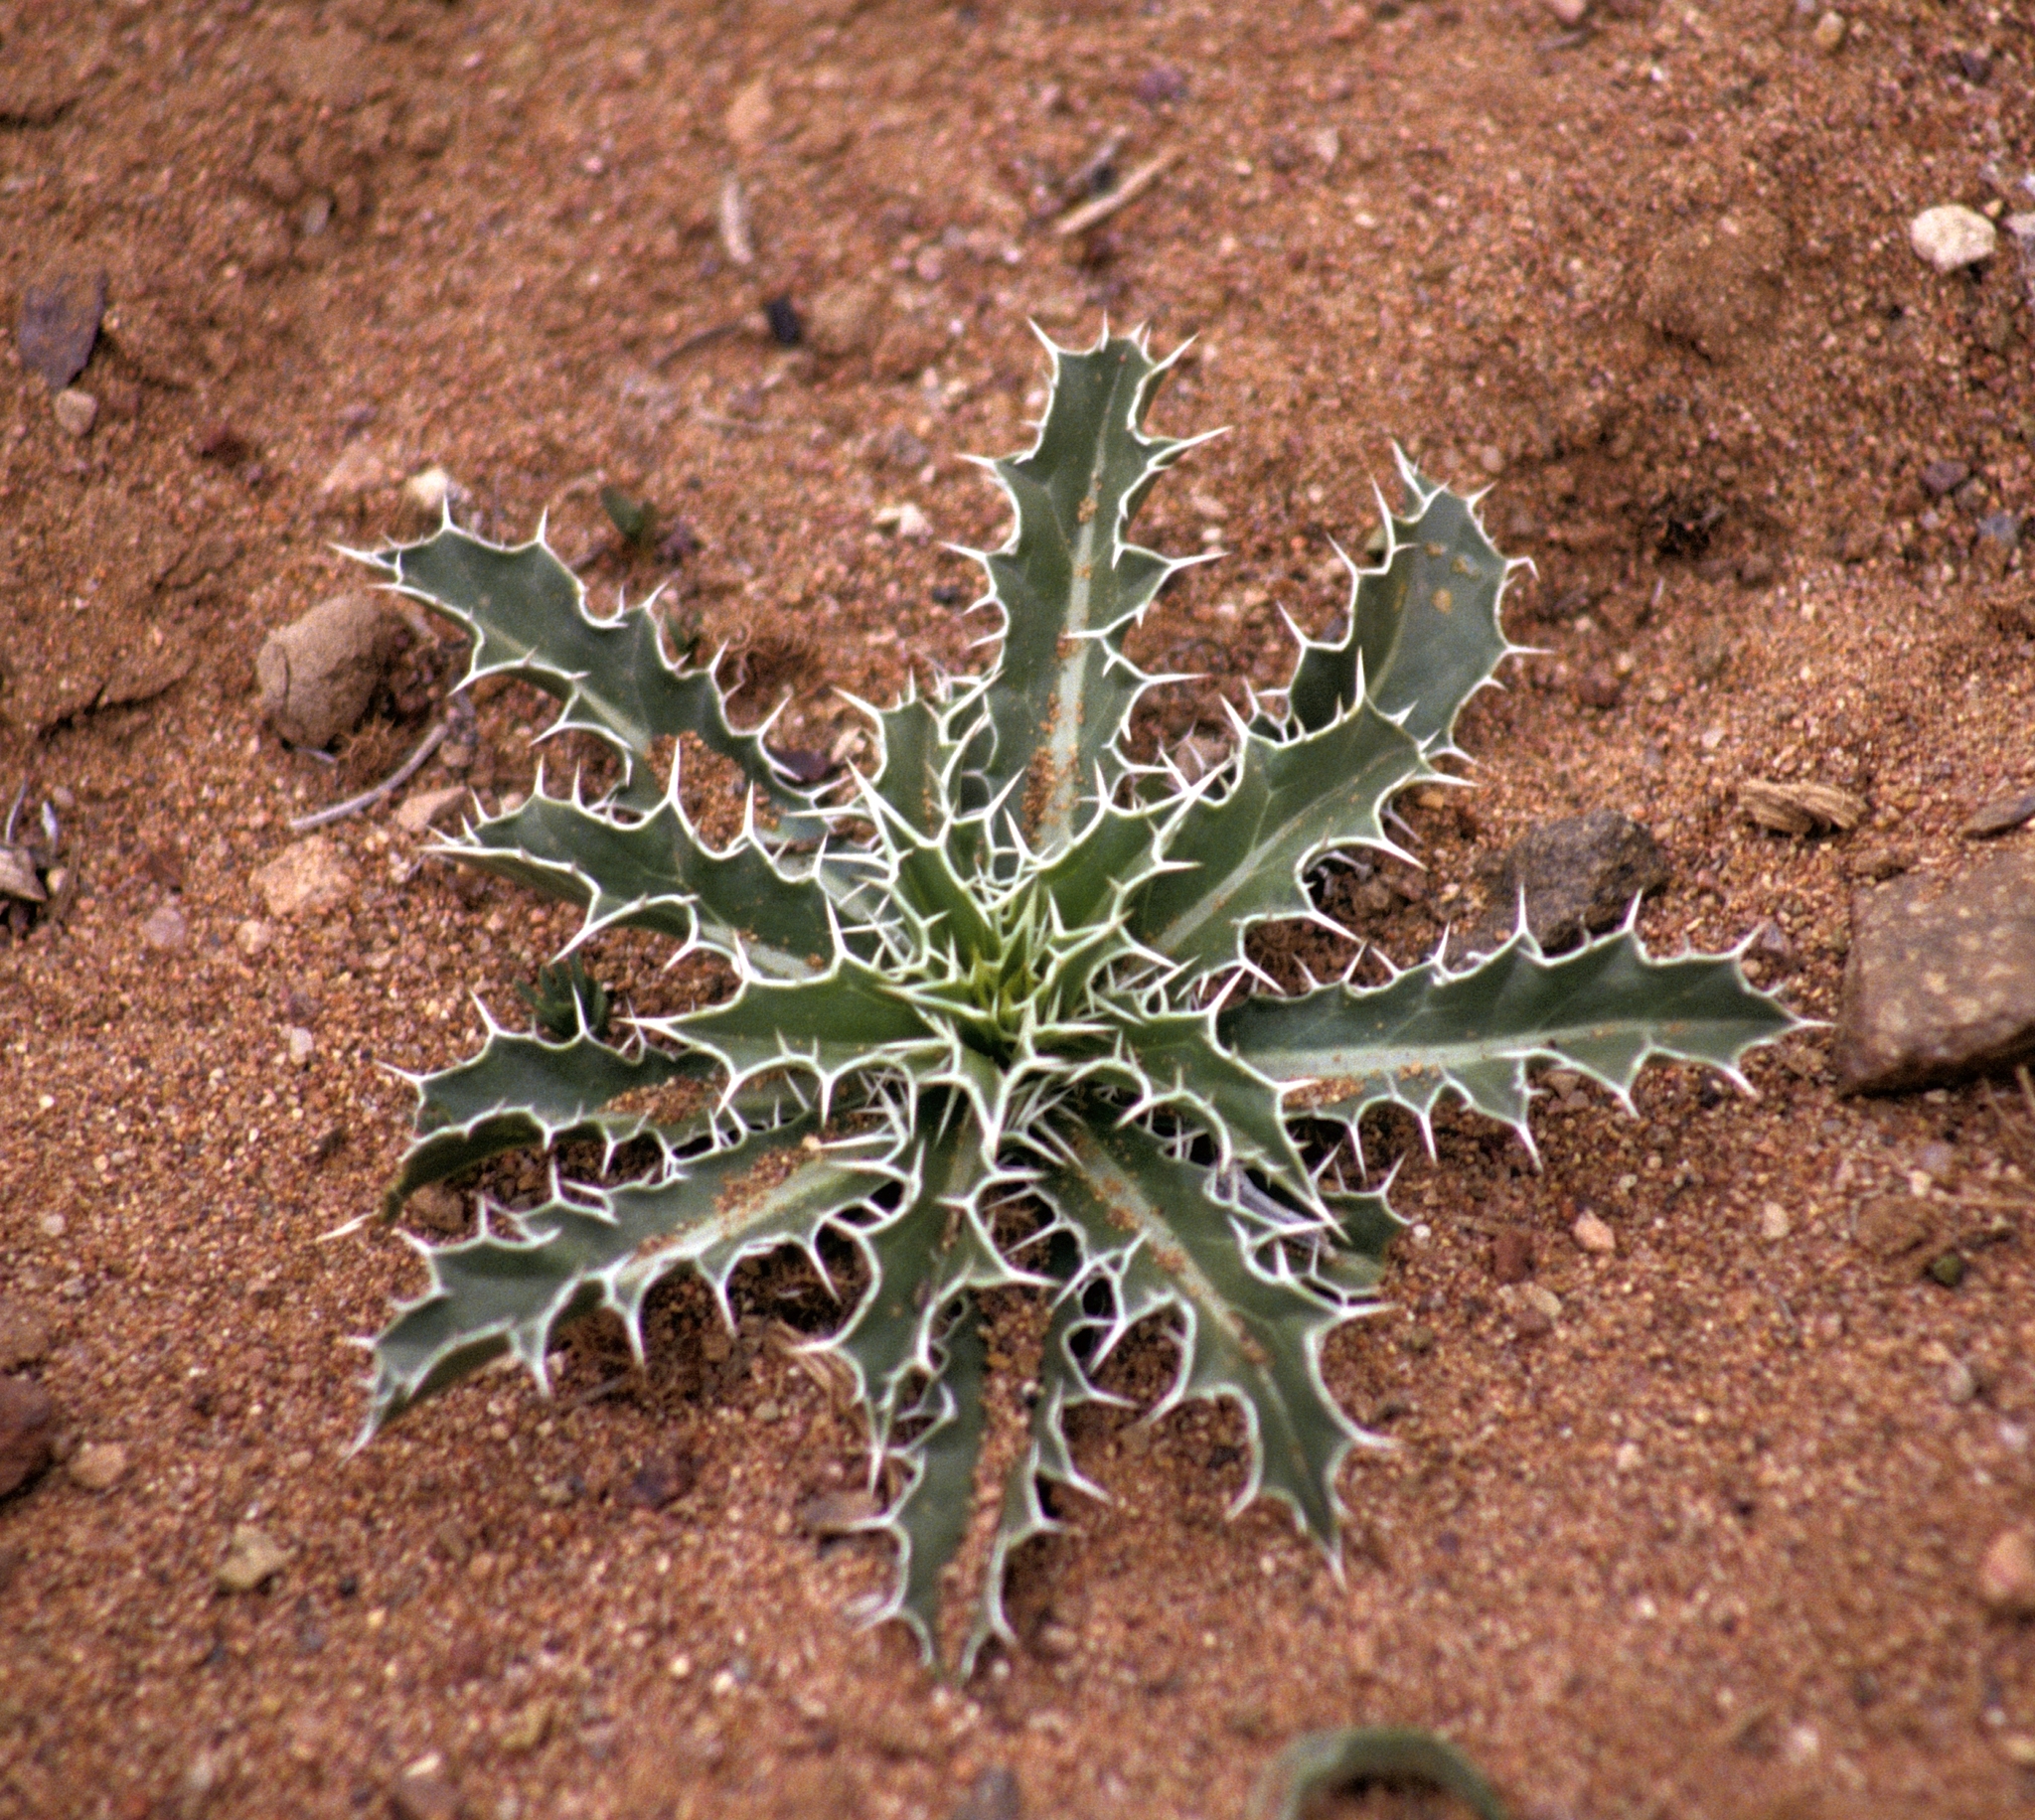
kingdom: Plantae
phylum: Tracheophyta
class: Magnoliopsida
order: Asterales
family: Asteraceae
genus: Carthamus
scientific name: Carthamus duvauxii
